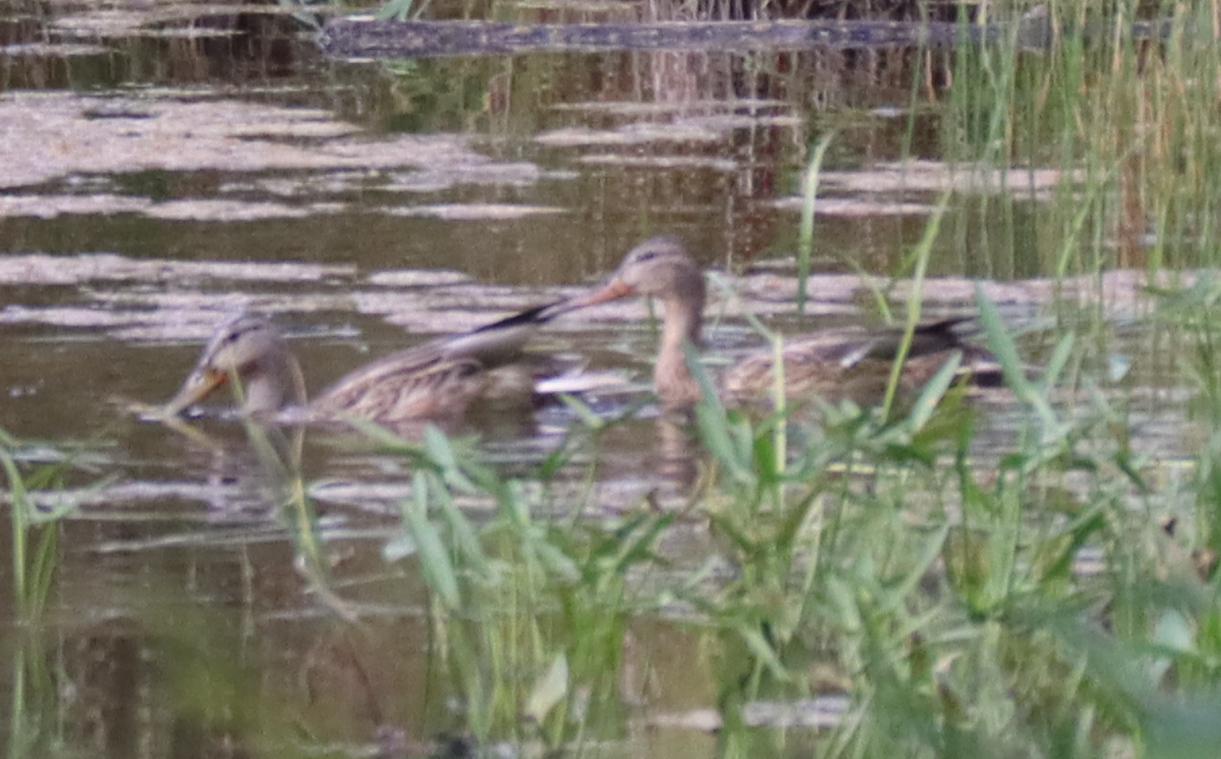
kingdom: Animalia
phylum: Chordata
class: Aves
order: Anseriformes
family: Anatidae
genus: Anas
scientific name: Anas platyrhynchos
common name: Mallard
